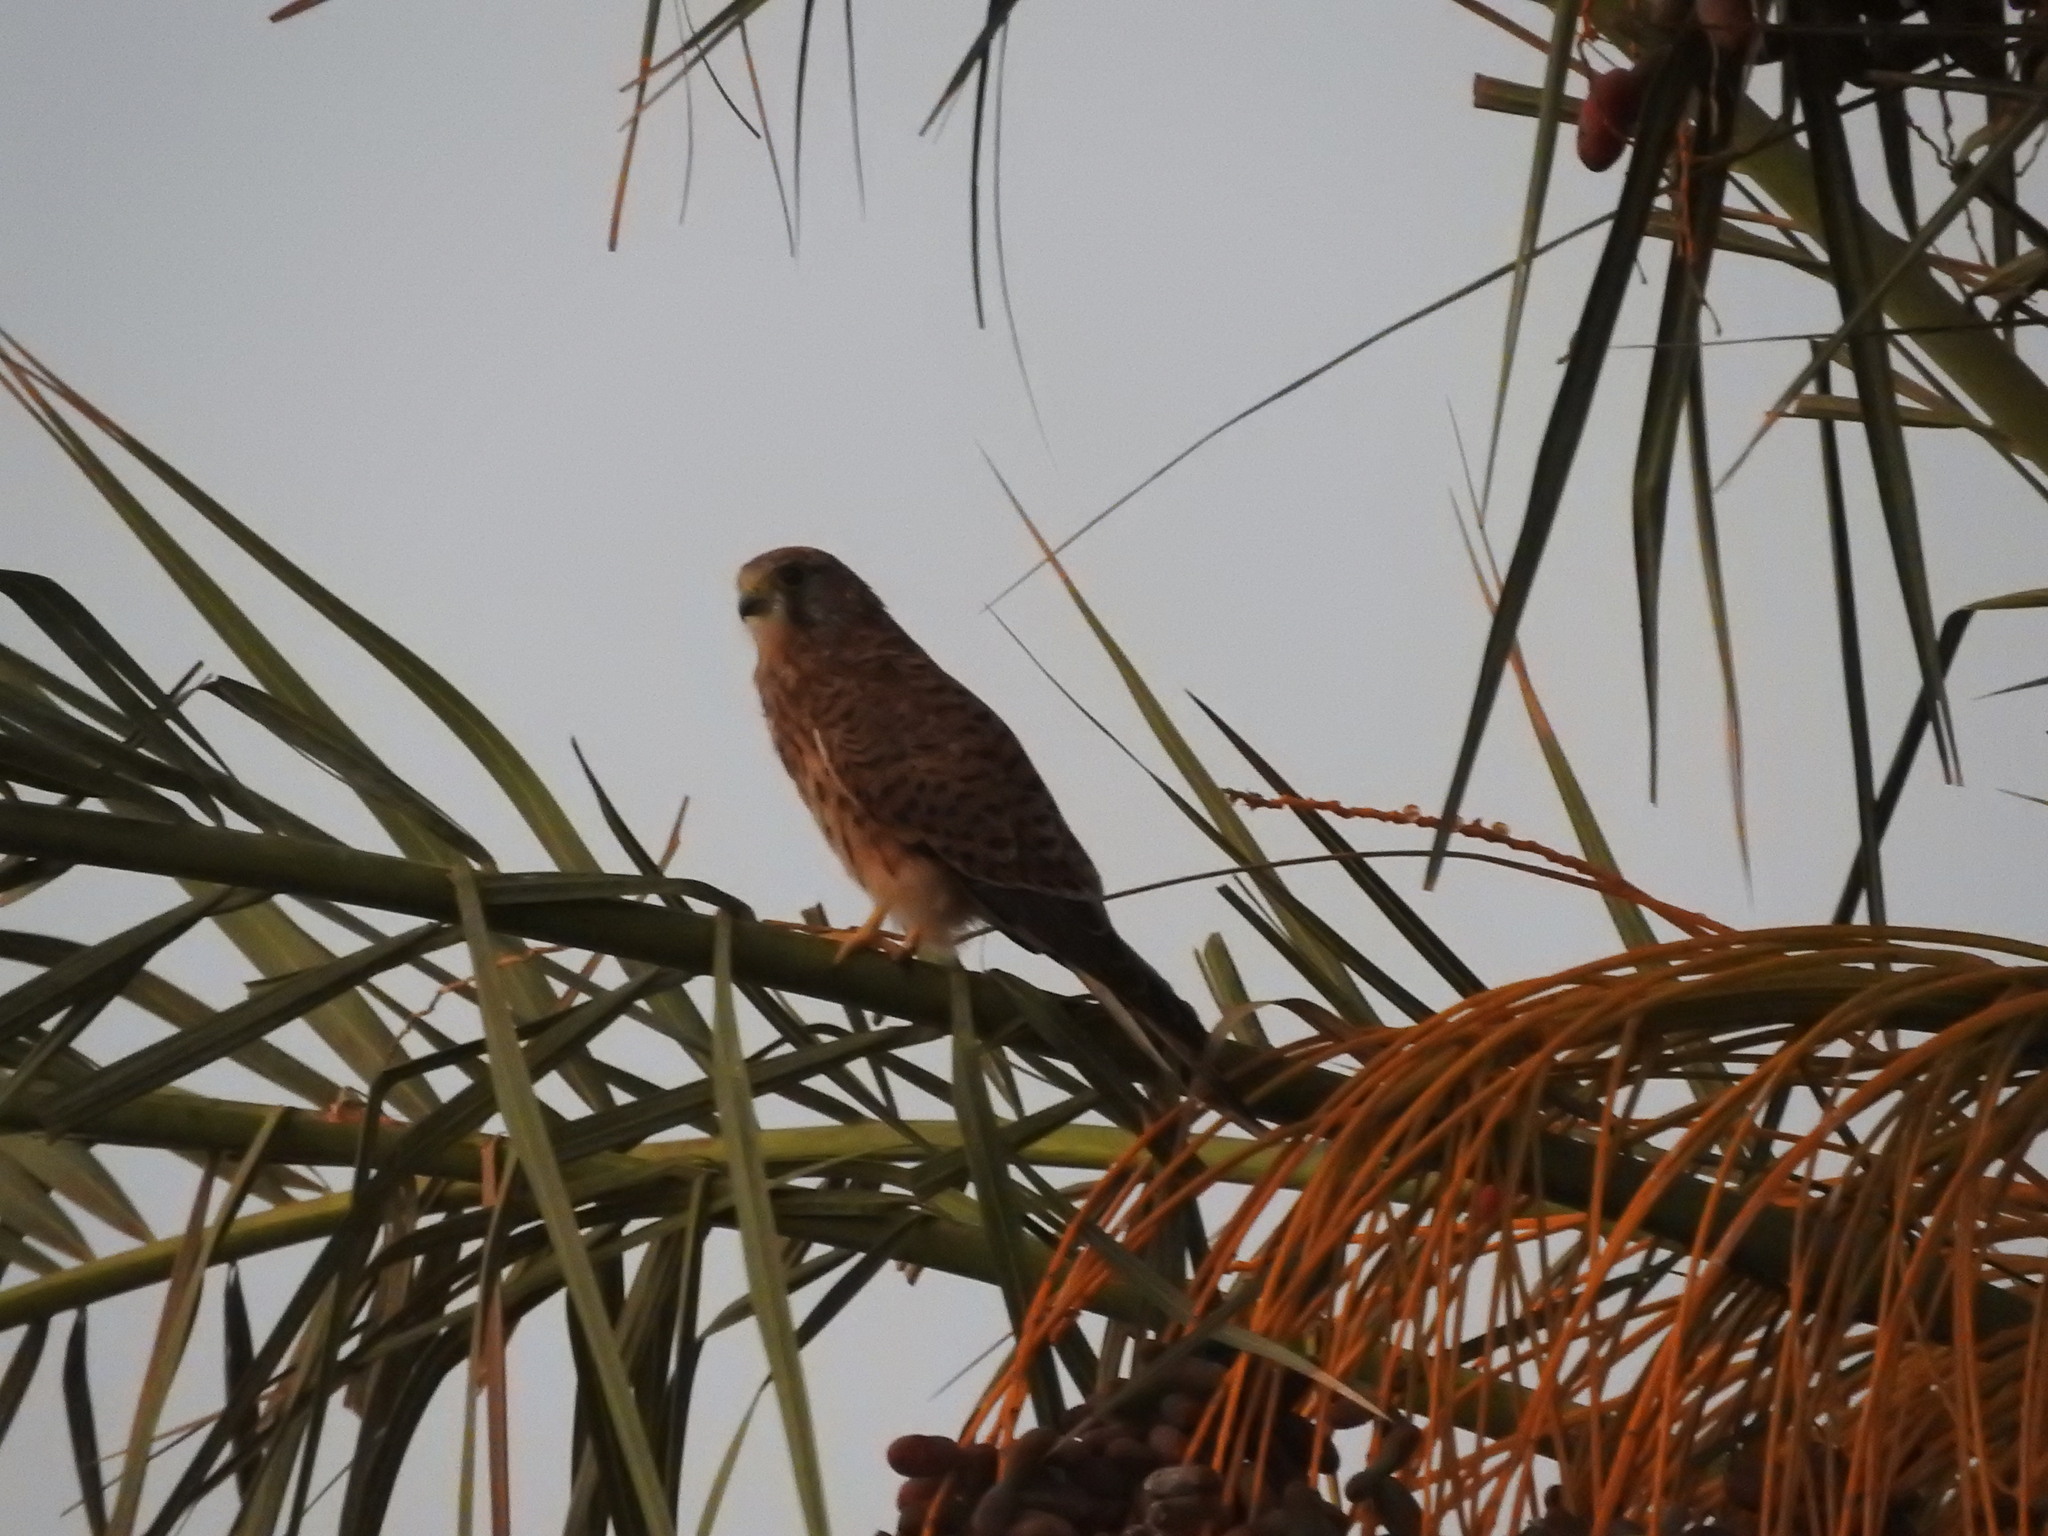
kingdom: Animalia
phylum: Chordata
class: Aves
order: Falconiformes
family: Falconidae
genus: Falco
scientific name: Falco tinnunculus
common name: Common kestrel
